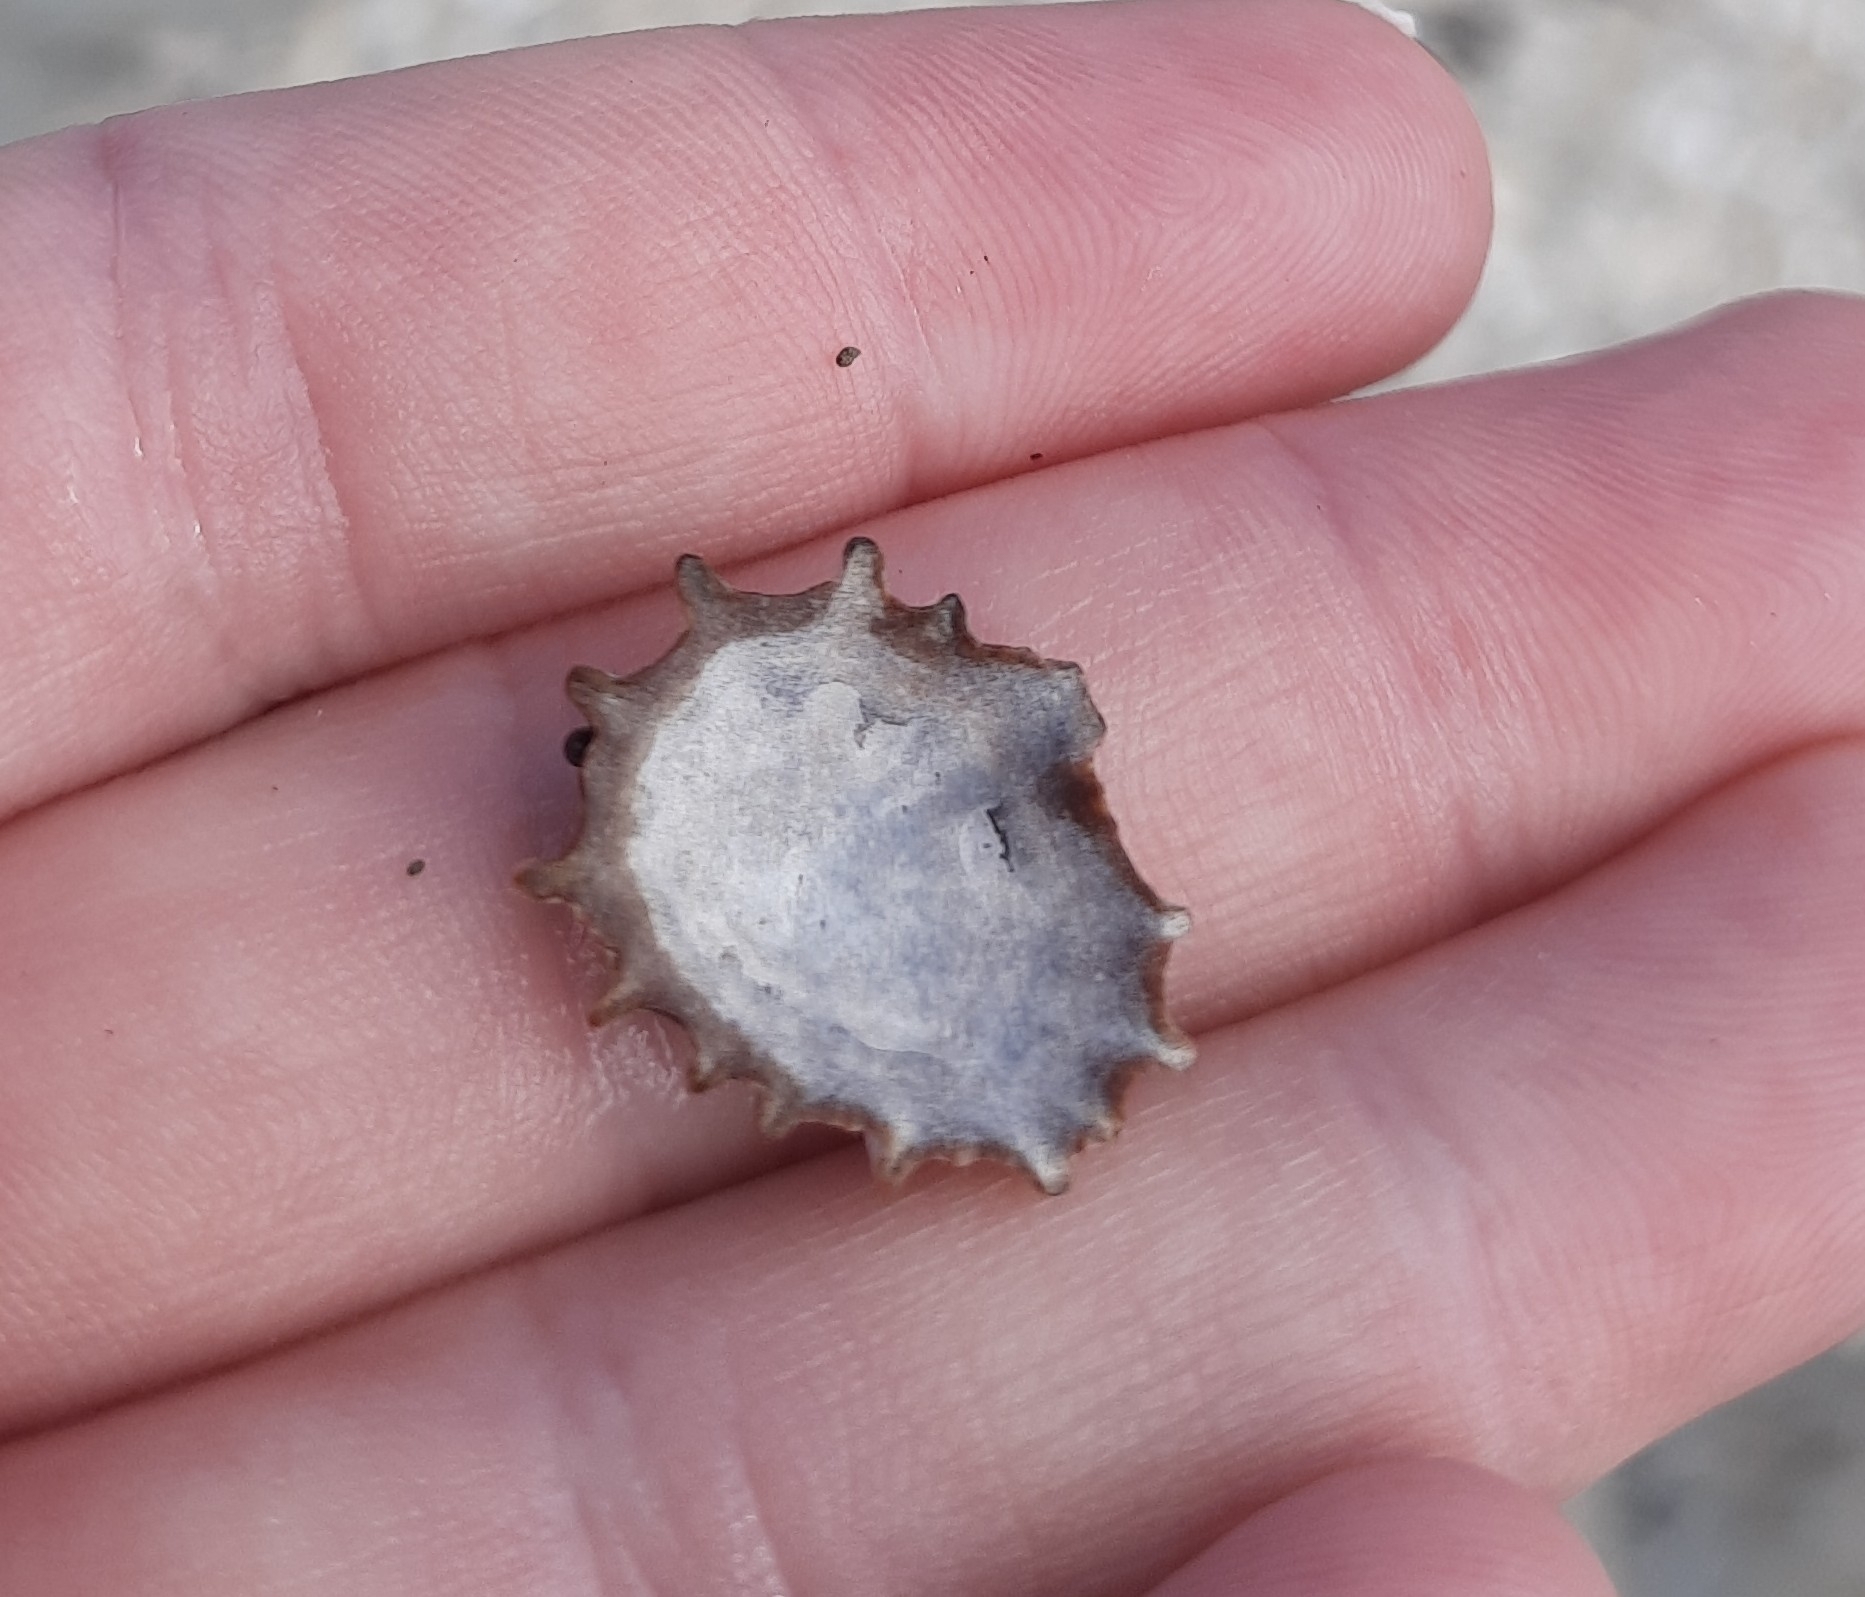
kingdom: Animalia
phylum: Mollusca
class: Gastropoda
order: Siphonariida
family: Siphonariidae
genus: Siphonaria
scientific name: Siphonaria australis
